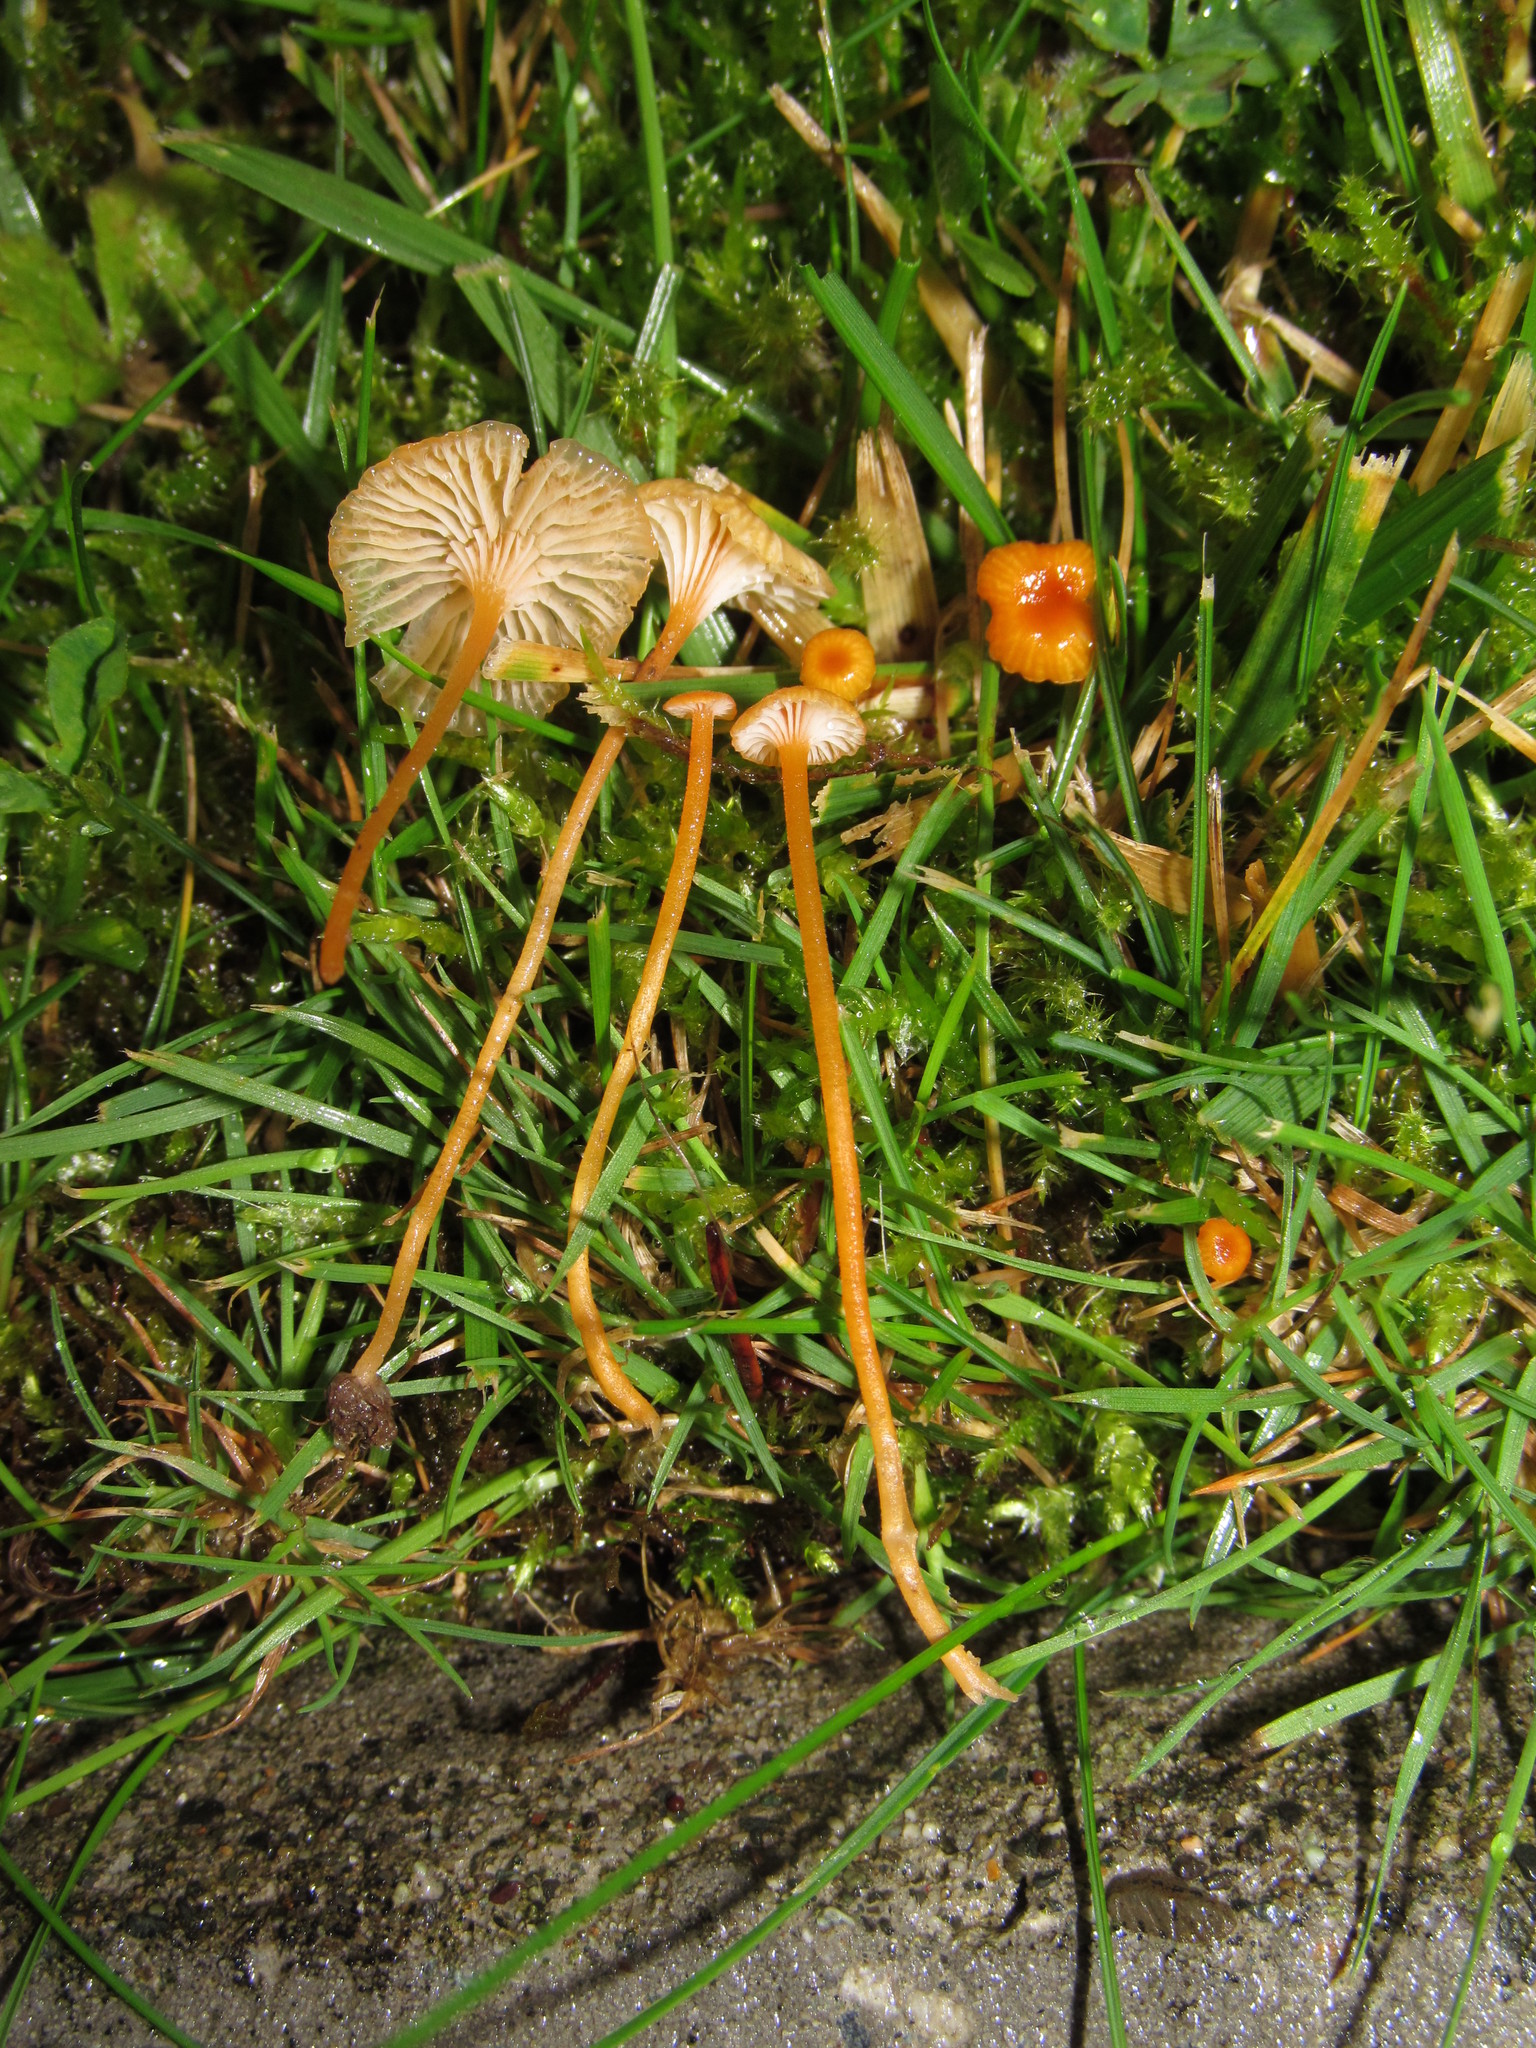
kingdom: Fungi
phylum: Basidiomycota
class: Agaricomycetes
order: Hymenochaetales
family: Rickenellaceae
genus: Rickenella
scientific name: Rickenella fibula
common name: Orange mosscap
